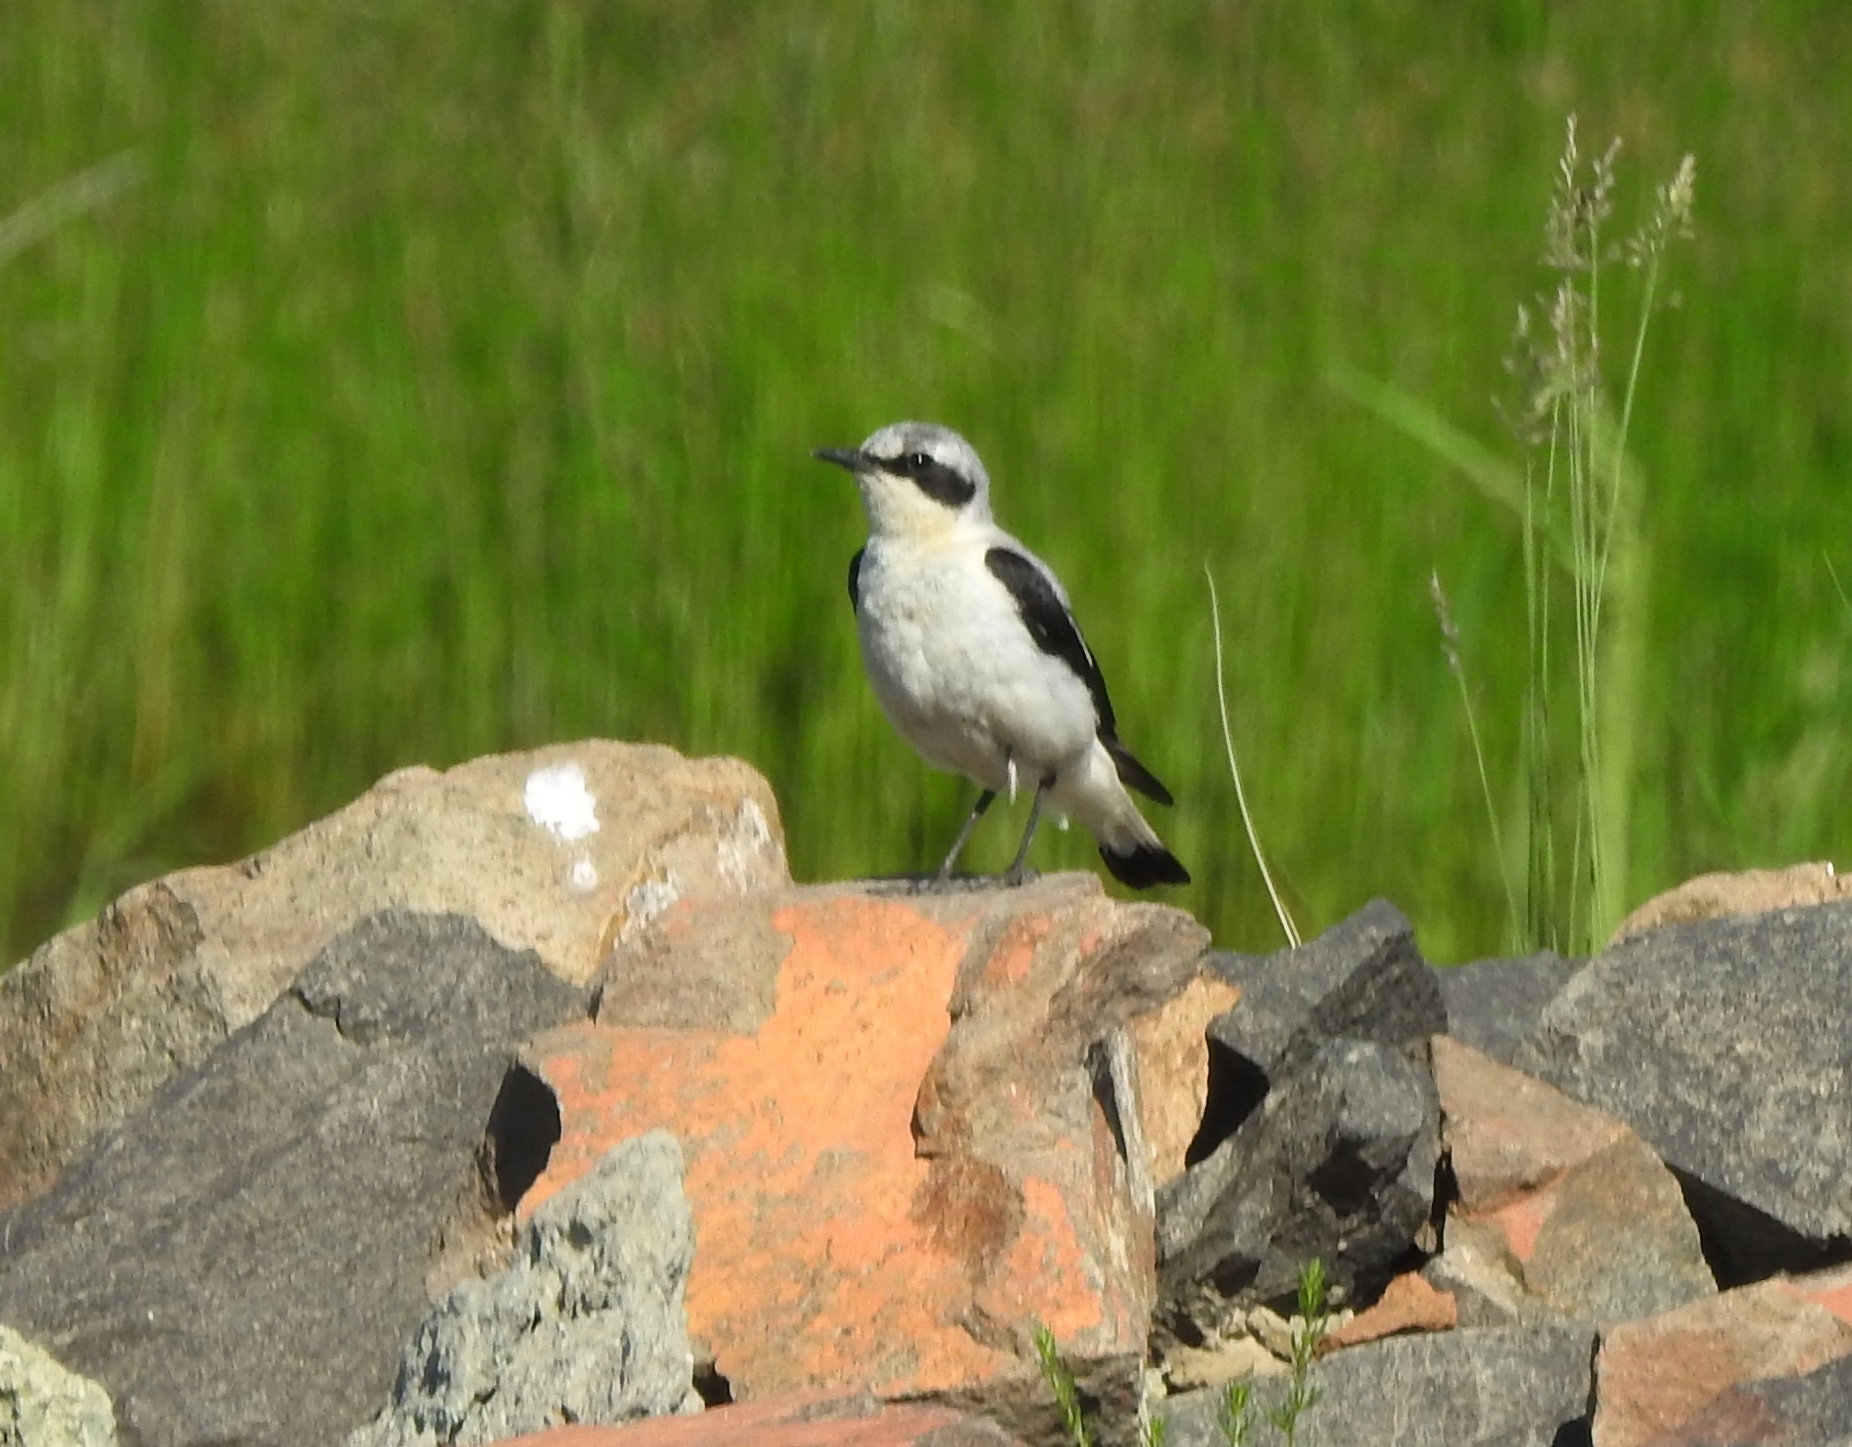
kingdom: Animalia
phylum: Chordata
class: Aves
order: Passeriformes
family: Muscicapidae
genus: Oenanthe
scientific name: Oenanthe oenanthe
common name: Northern wheatear
